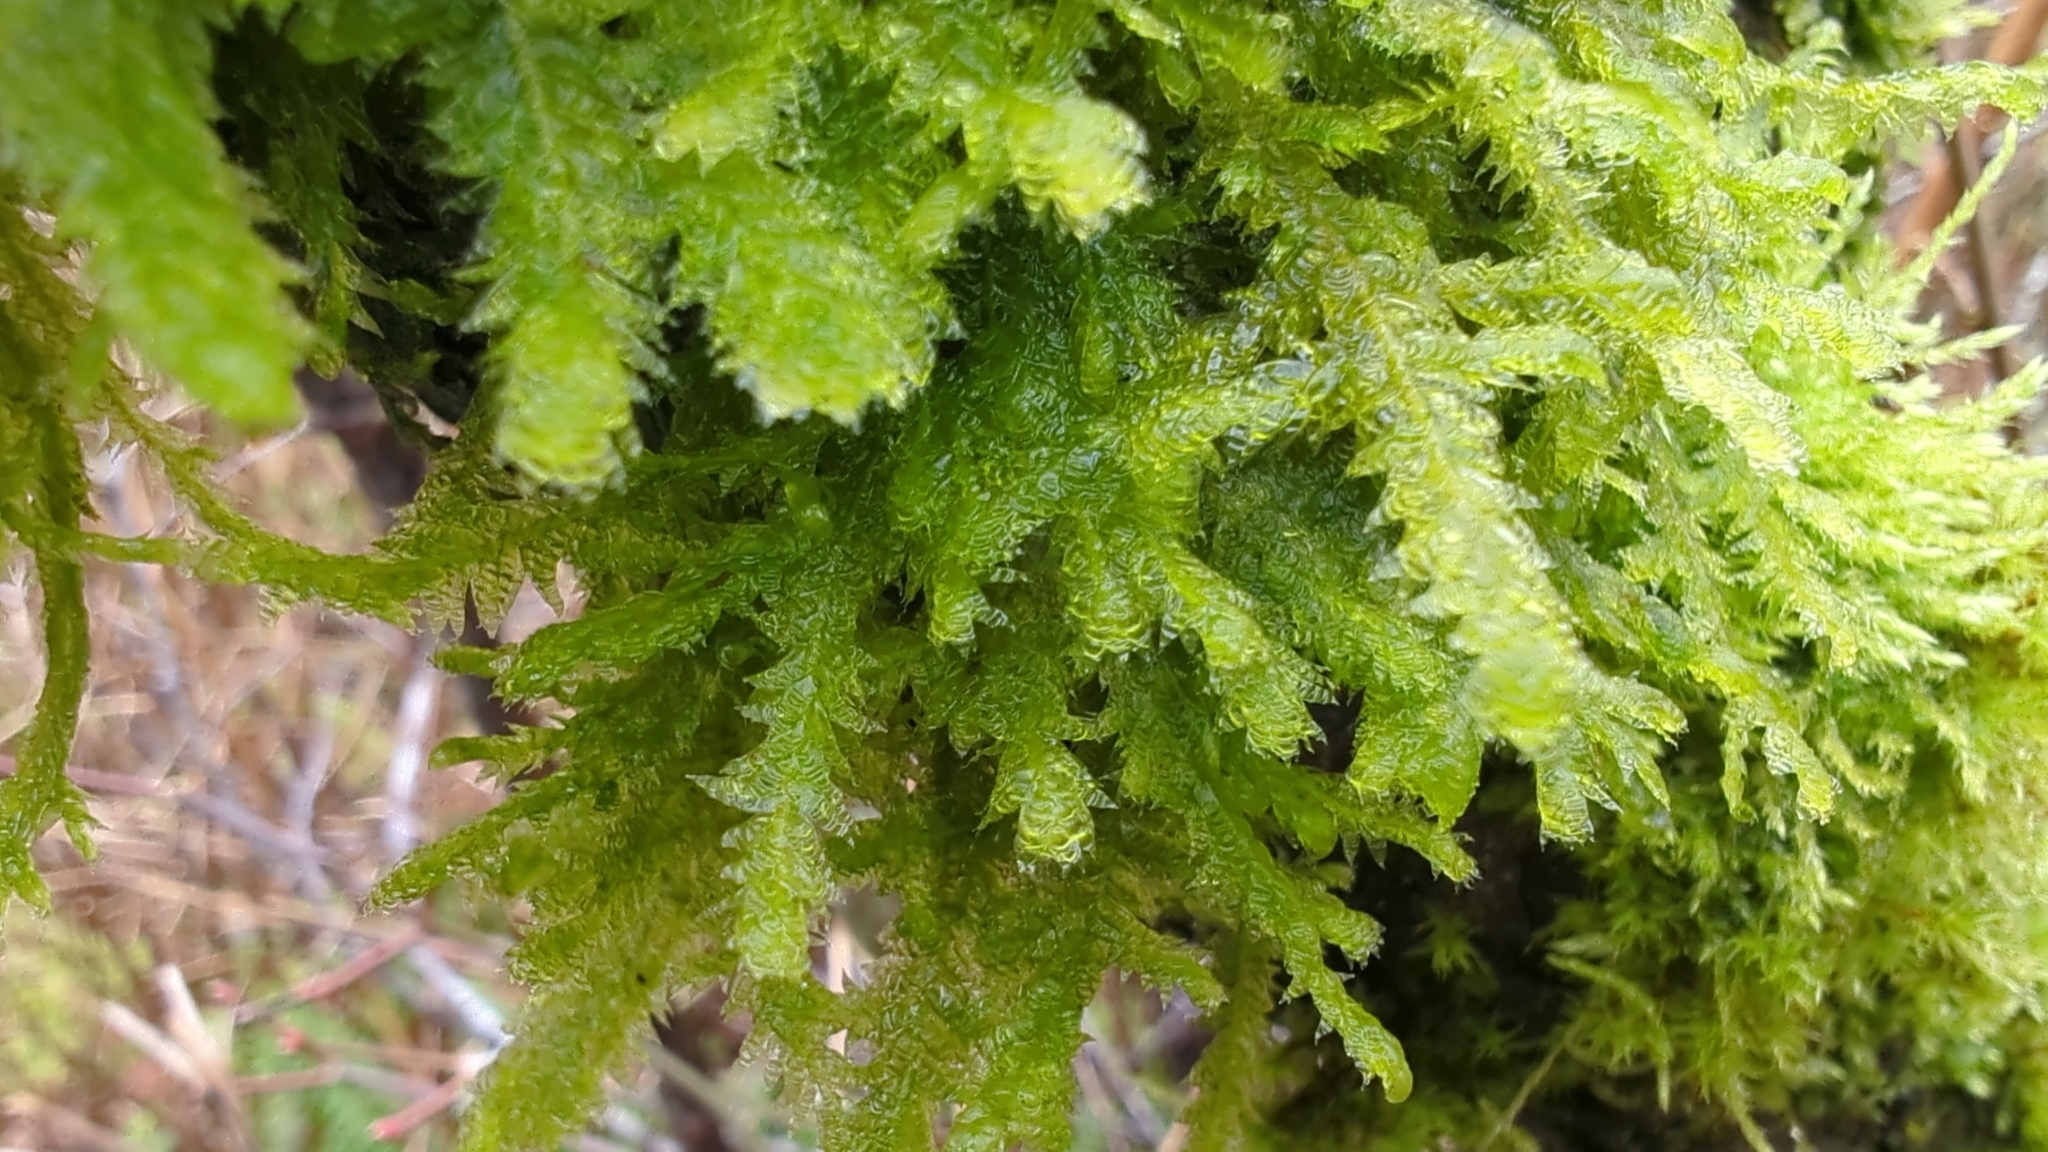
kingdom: Plantae
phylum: Bryophyta
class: Bryopsida
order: Hypnales
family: Neckeraceae
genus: Neckera
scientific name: Neckera douglasii
